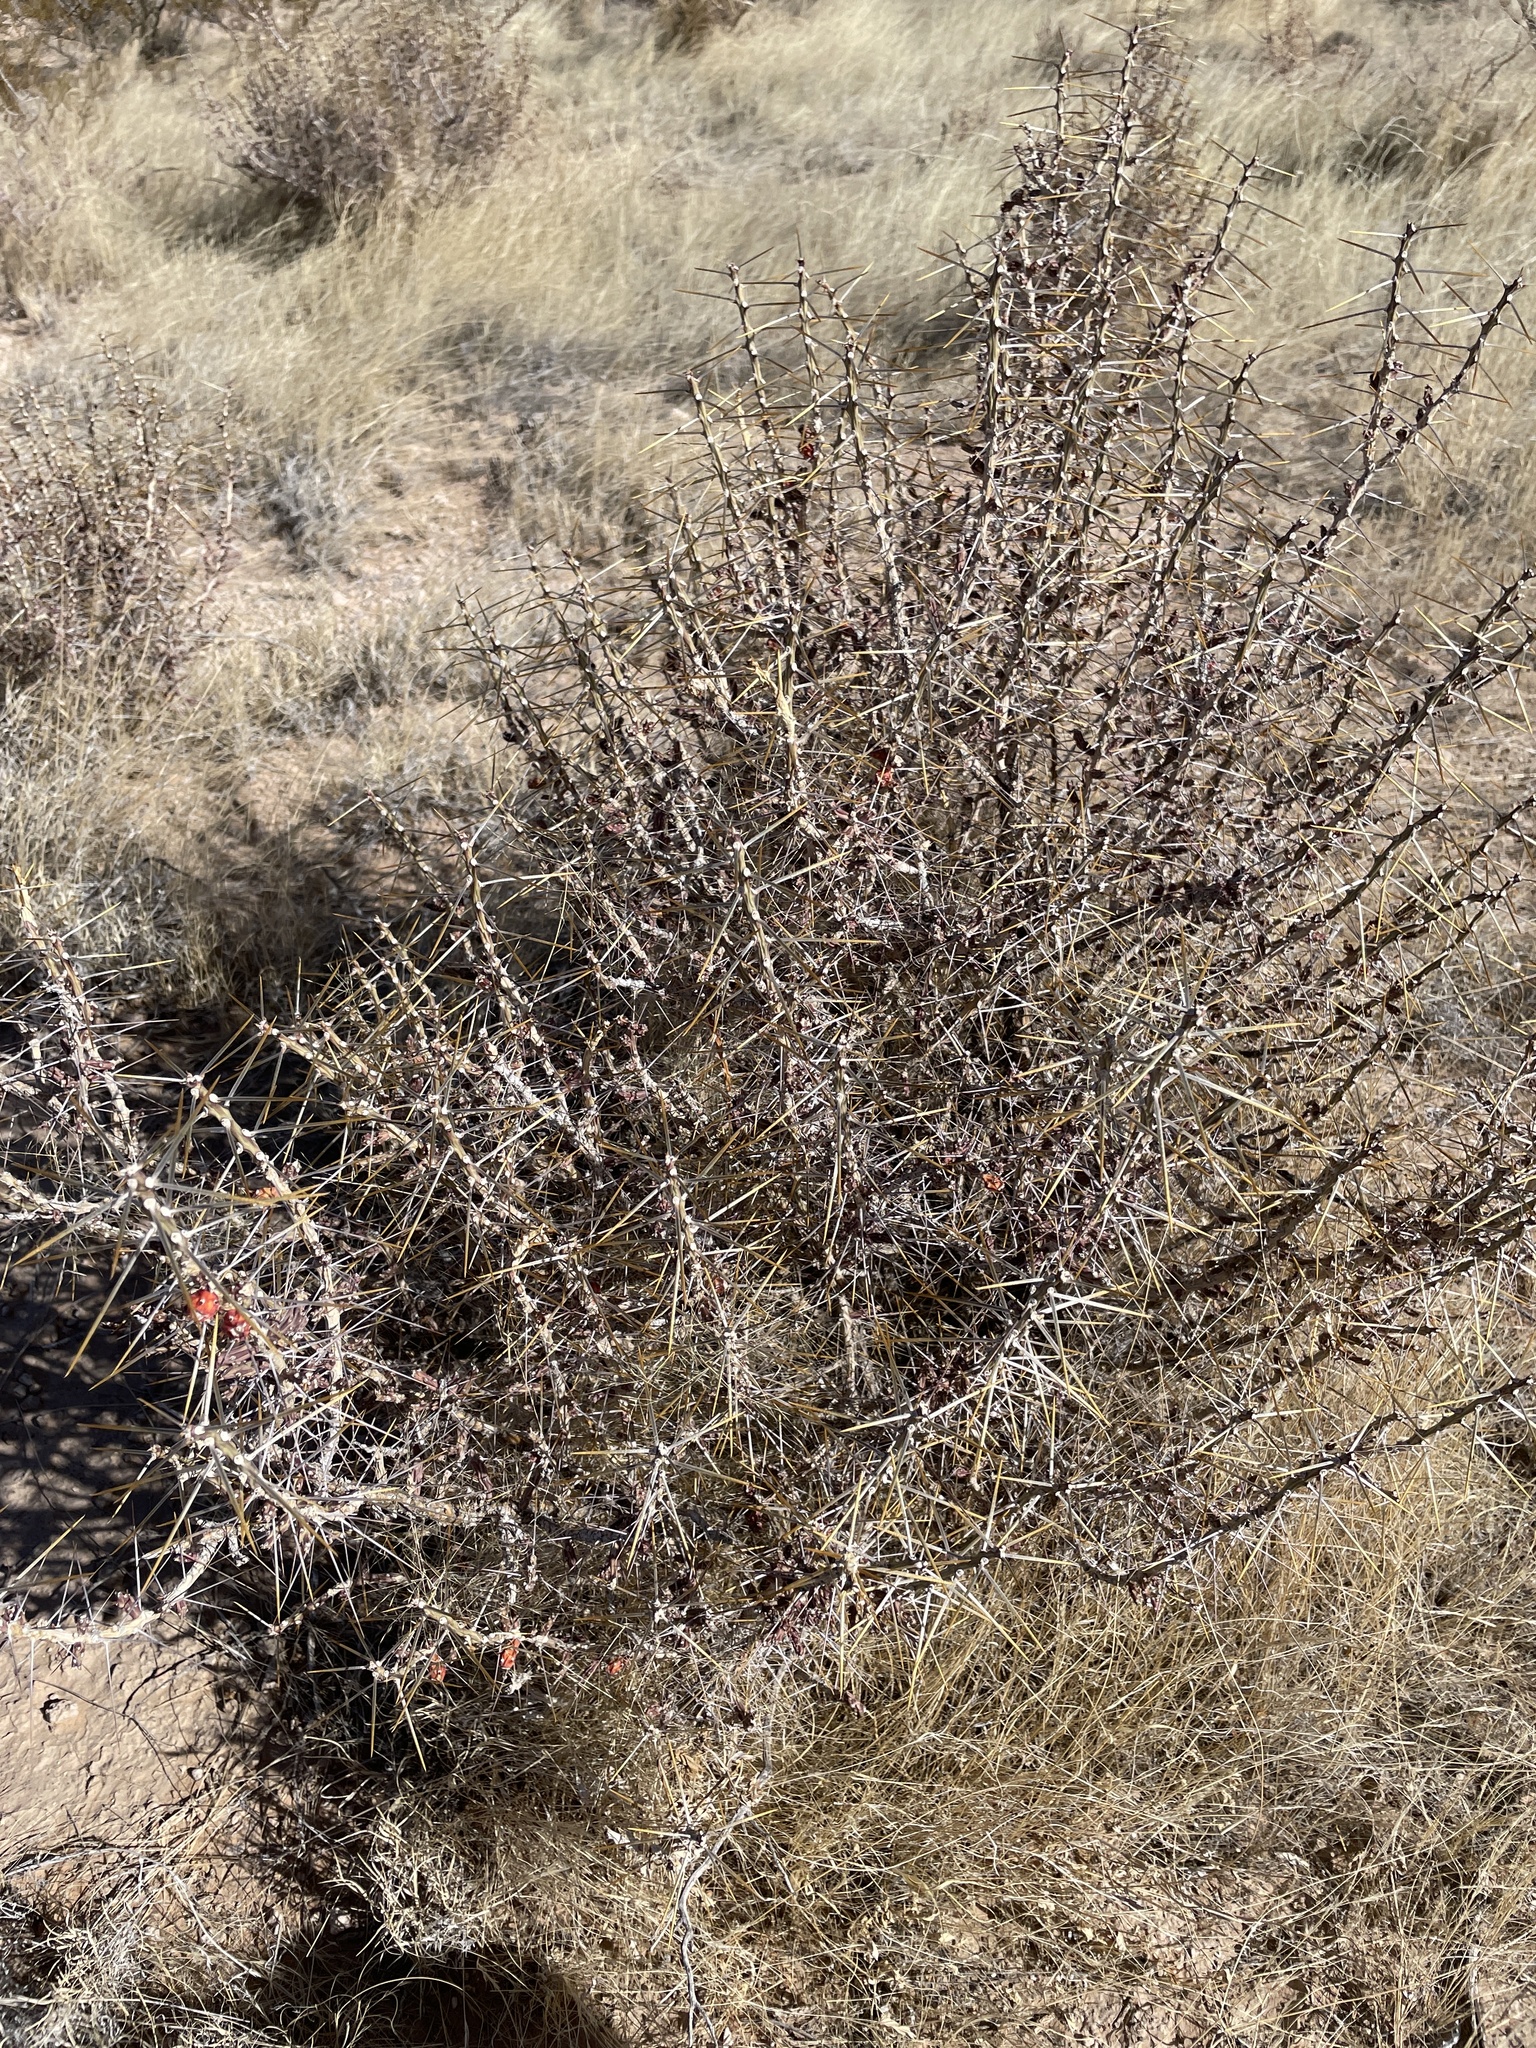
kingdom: Plantae
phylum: Tracheophyta
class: Magnoliopsida
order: Caryophyllales
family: Cactaceae
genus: Cylindropuntia
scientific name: Cylindropuntia leptocaulis
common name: Christmas cactus
